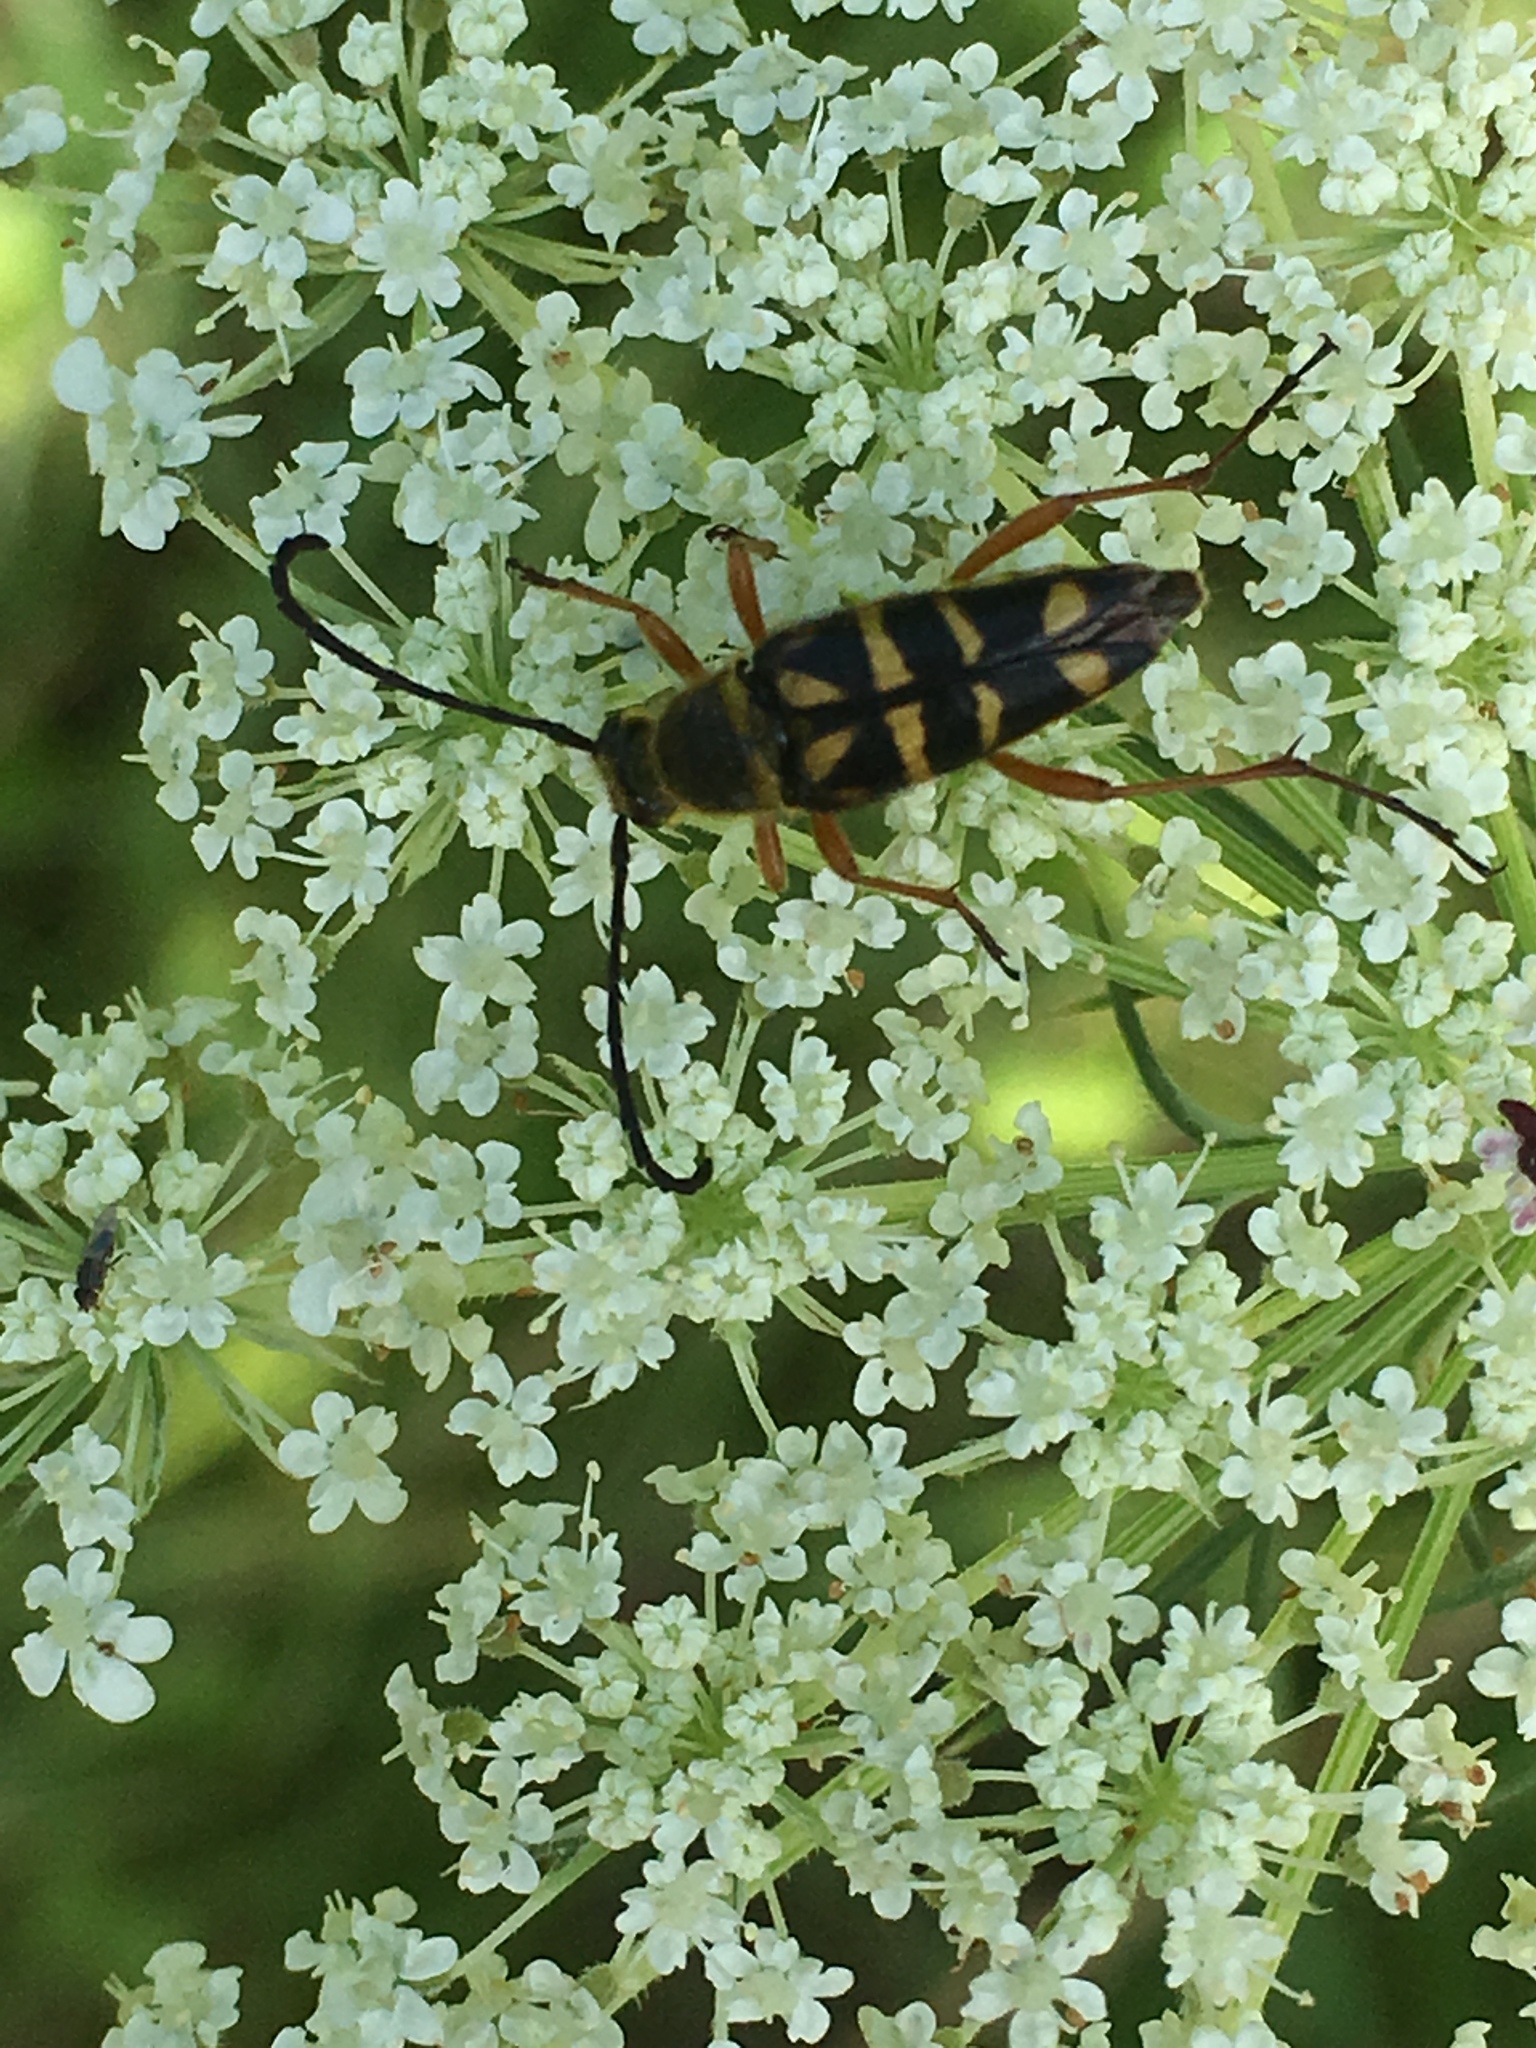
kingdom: Animalia
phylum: Arthropoda
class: Insecta
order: Coleoptera
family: Cerambycidae
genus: Typocerus
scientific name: Typocerus zebra
